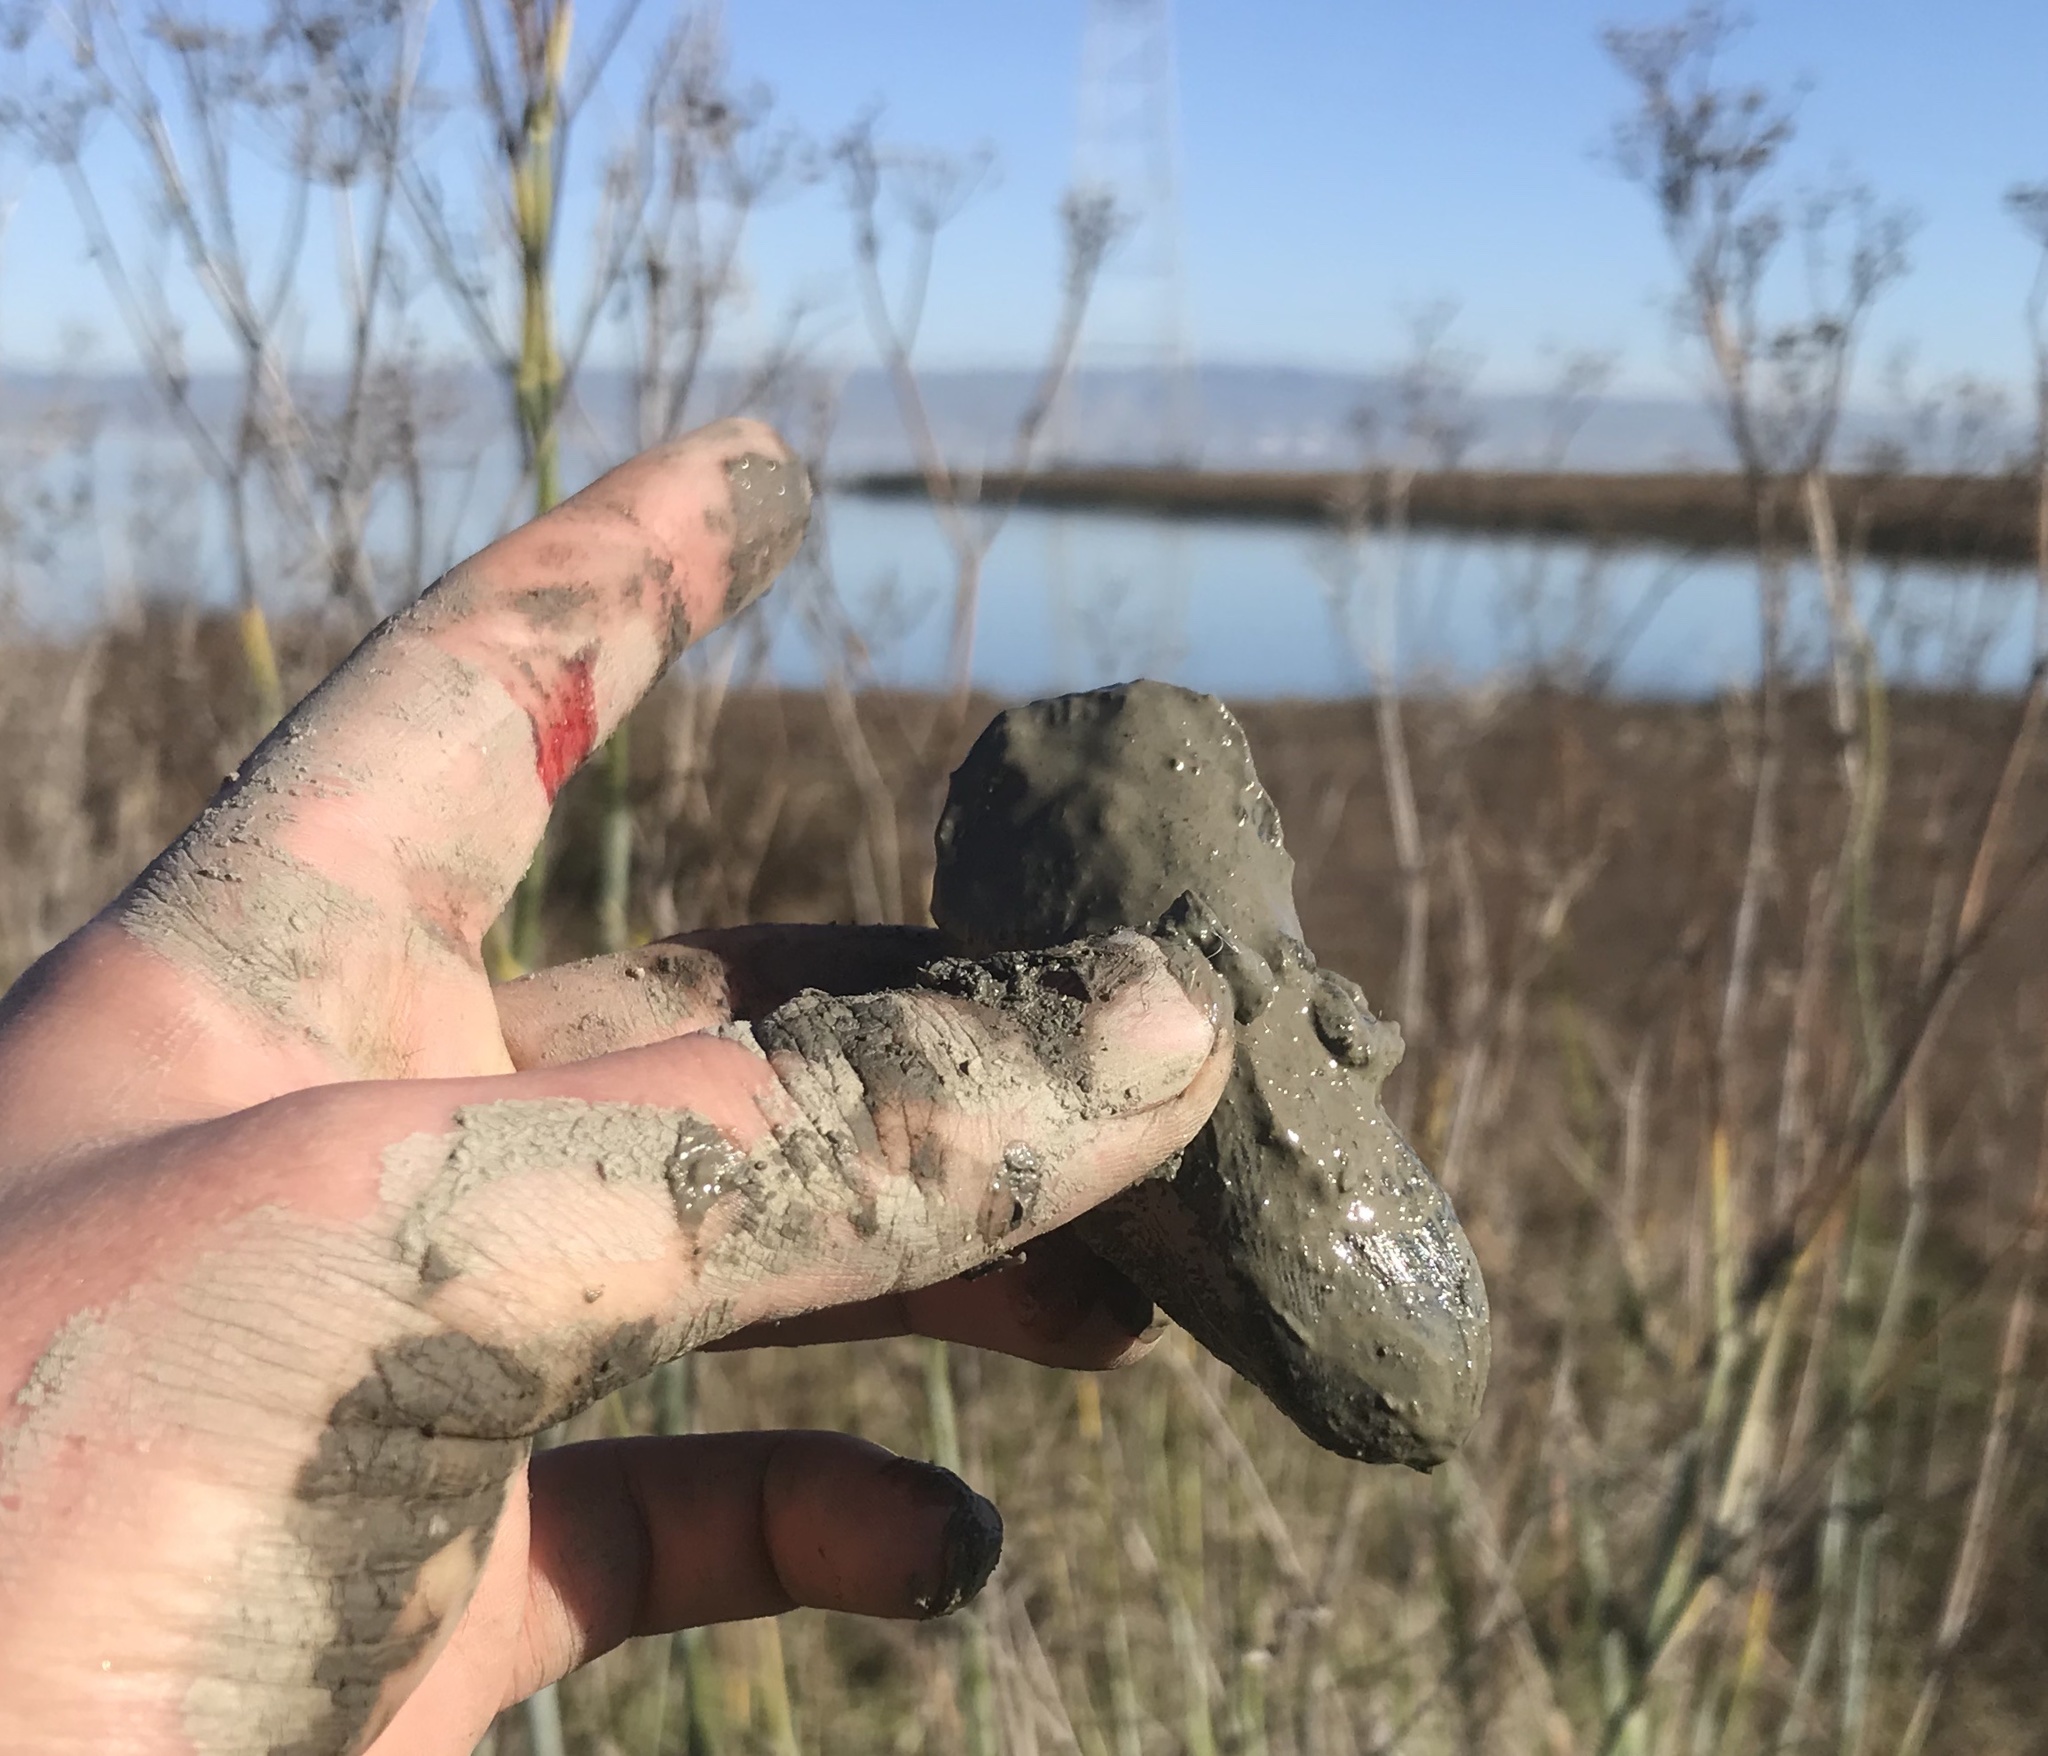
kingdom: Animalia
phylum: Mollusca
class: Bivalvia
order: Mytilida
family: Mytilidae
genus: Geukensia
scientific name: Geukensia demissa
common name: Ribbed mussel
